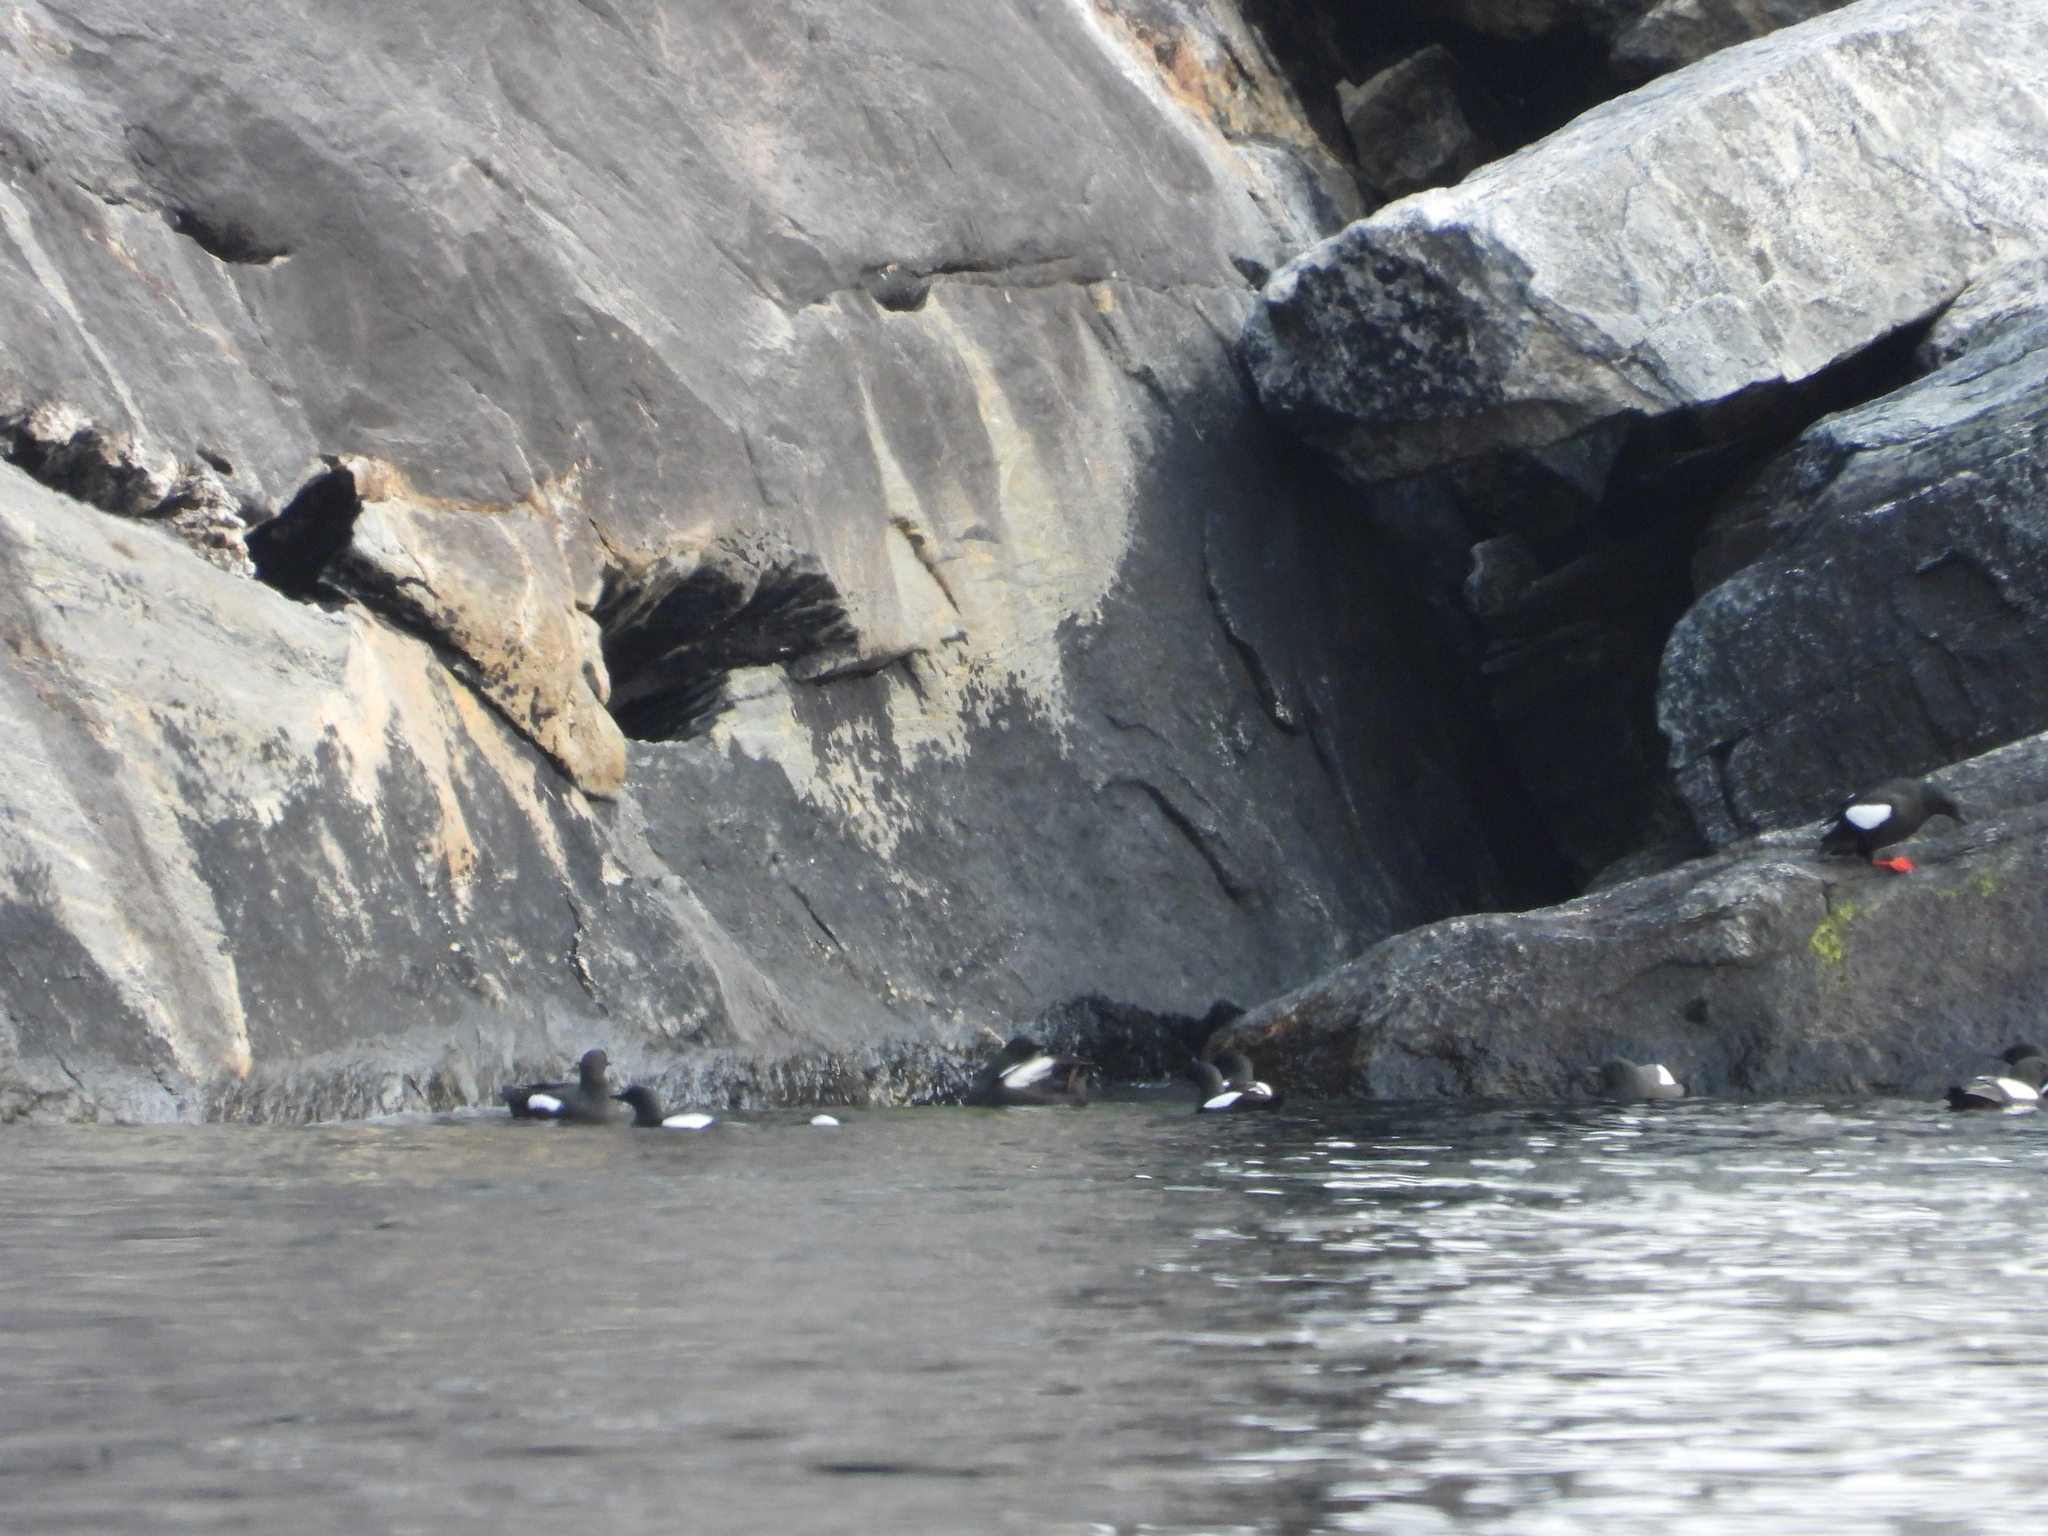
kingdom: Animalia
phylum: Chordata
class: Aves
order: Charadriiformes
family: Alcidae
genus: Cepphus
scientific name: Cepphus grylle
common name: Black guillemot
